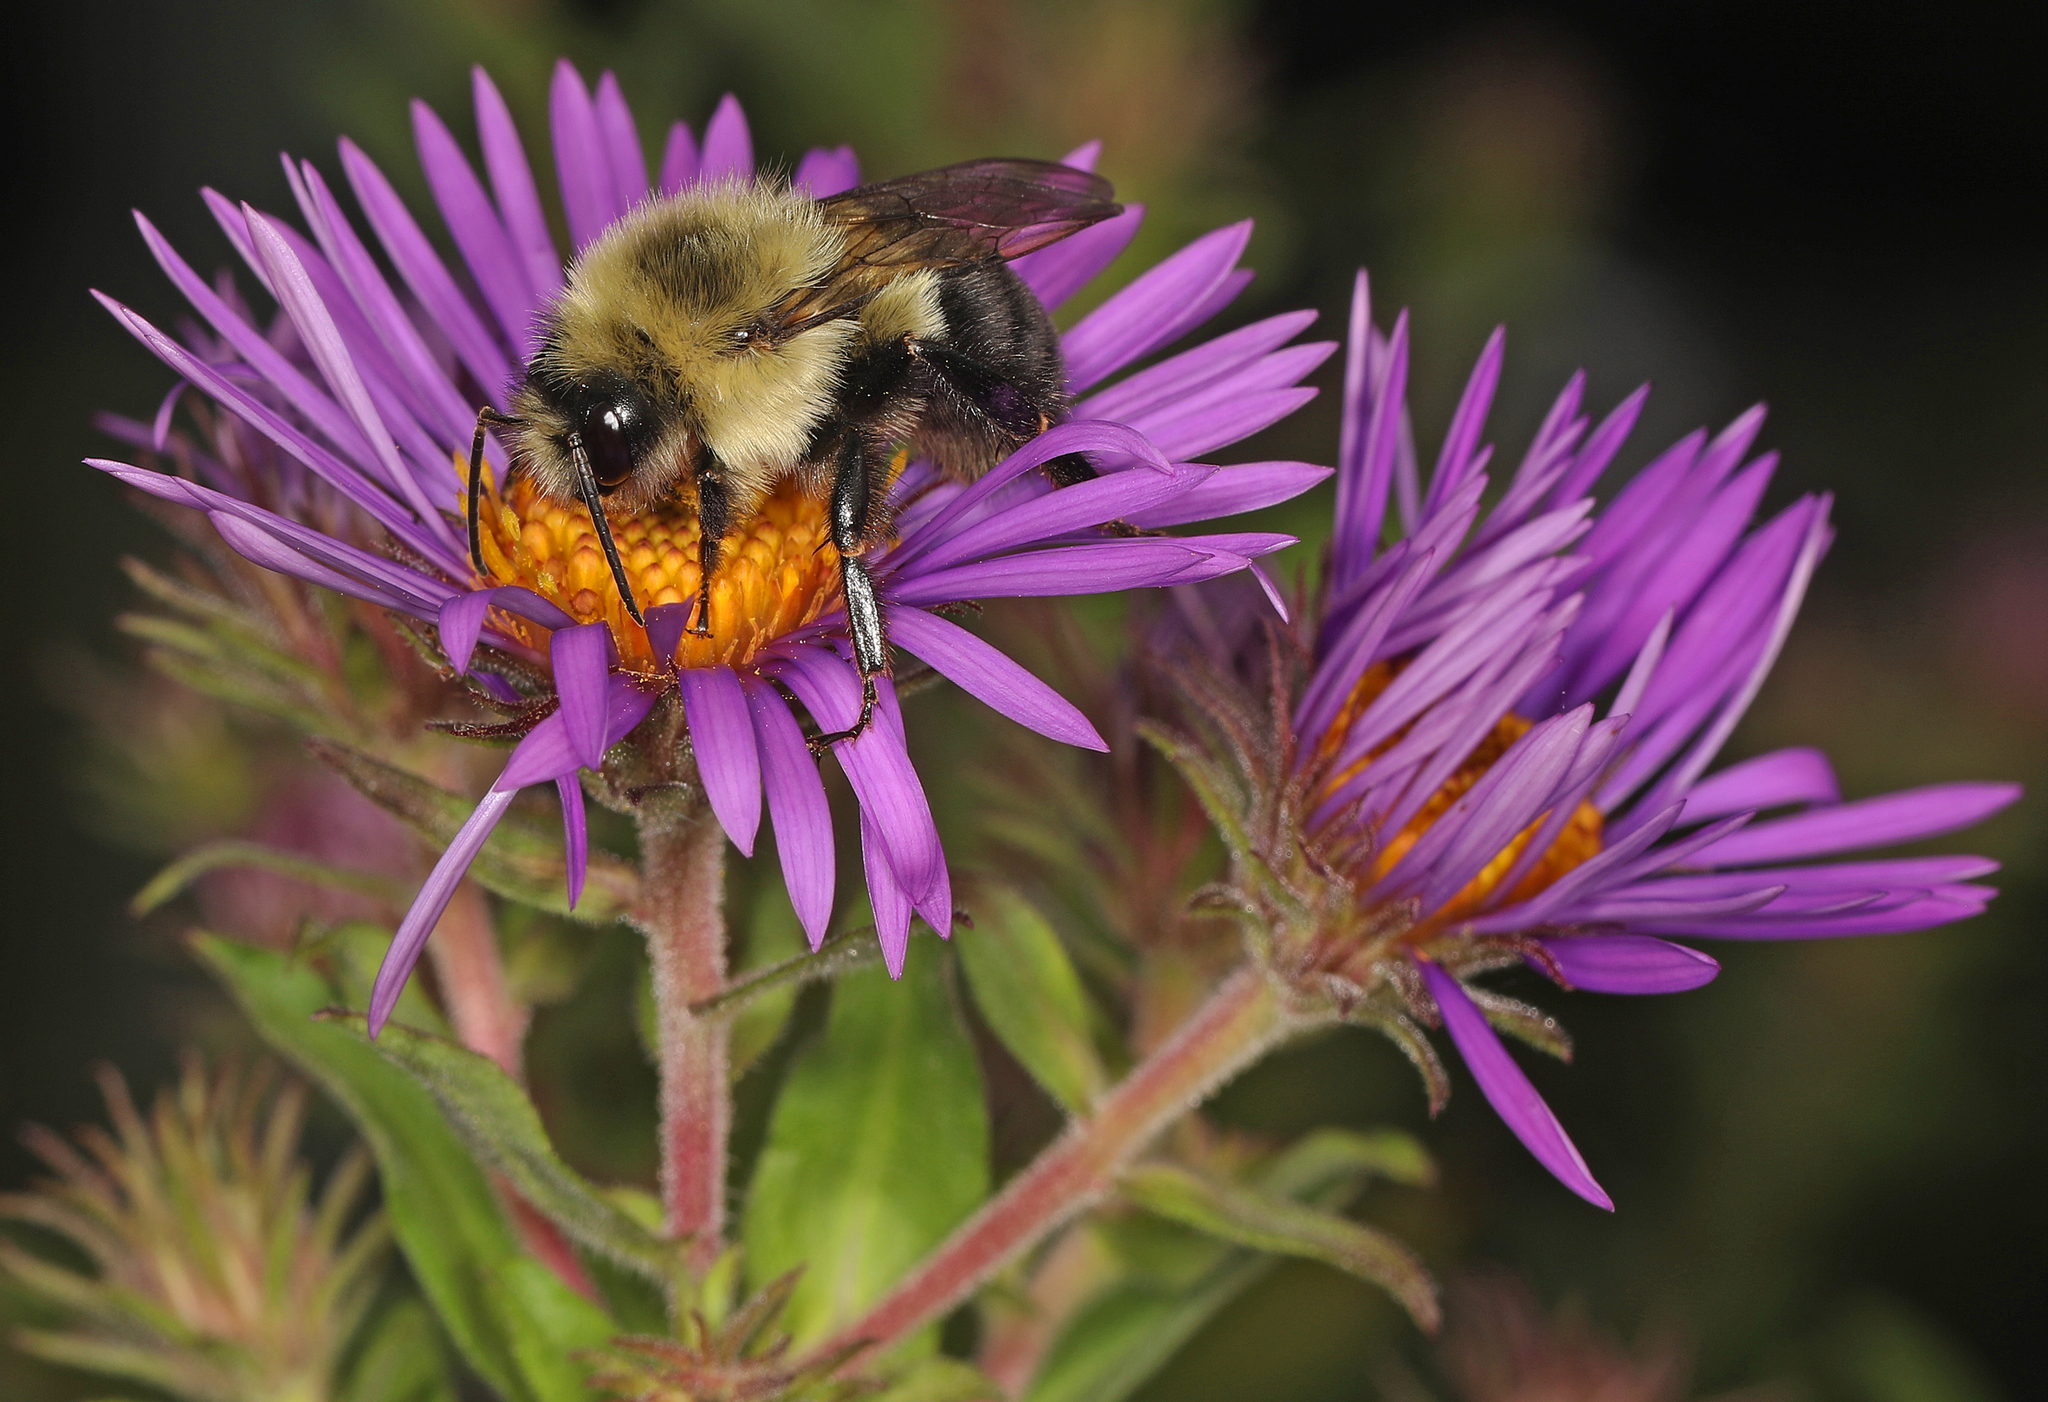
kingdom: Animalia
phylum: Arthropoda
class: Insecta
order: Hymenoptera
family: Apidae
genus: Bombus
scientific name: Bombus impatiens
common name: Common eastern bumble bee
